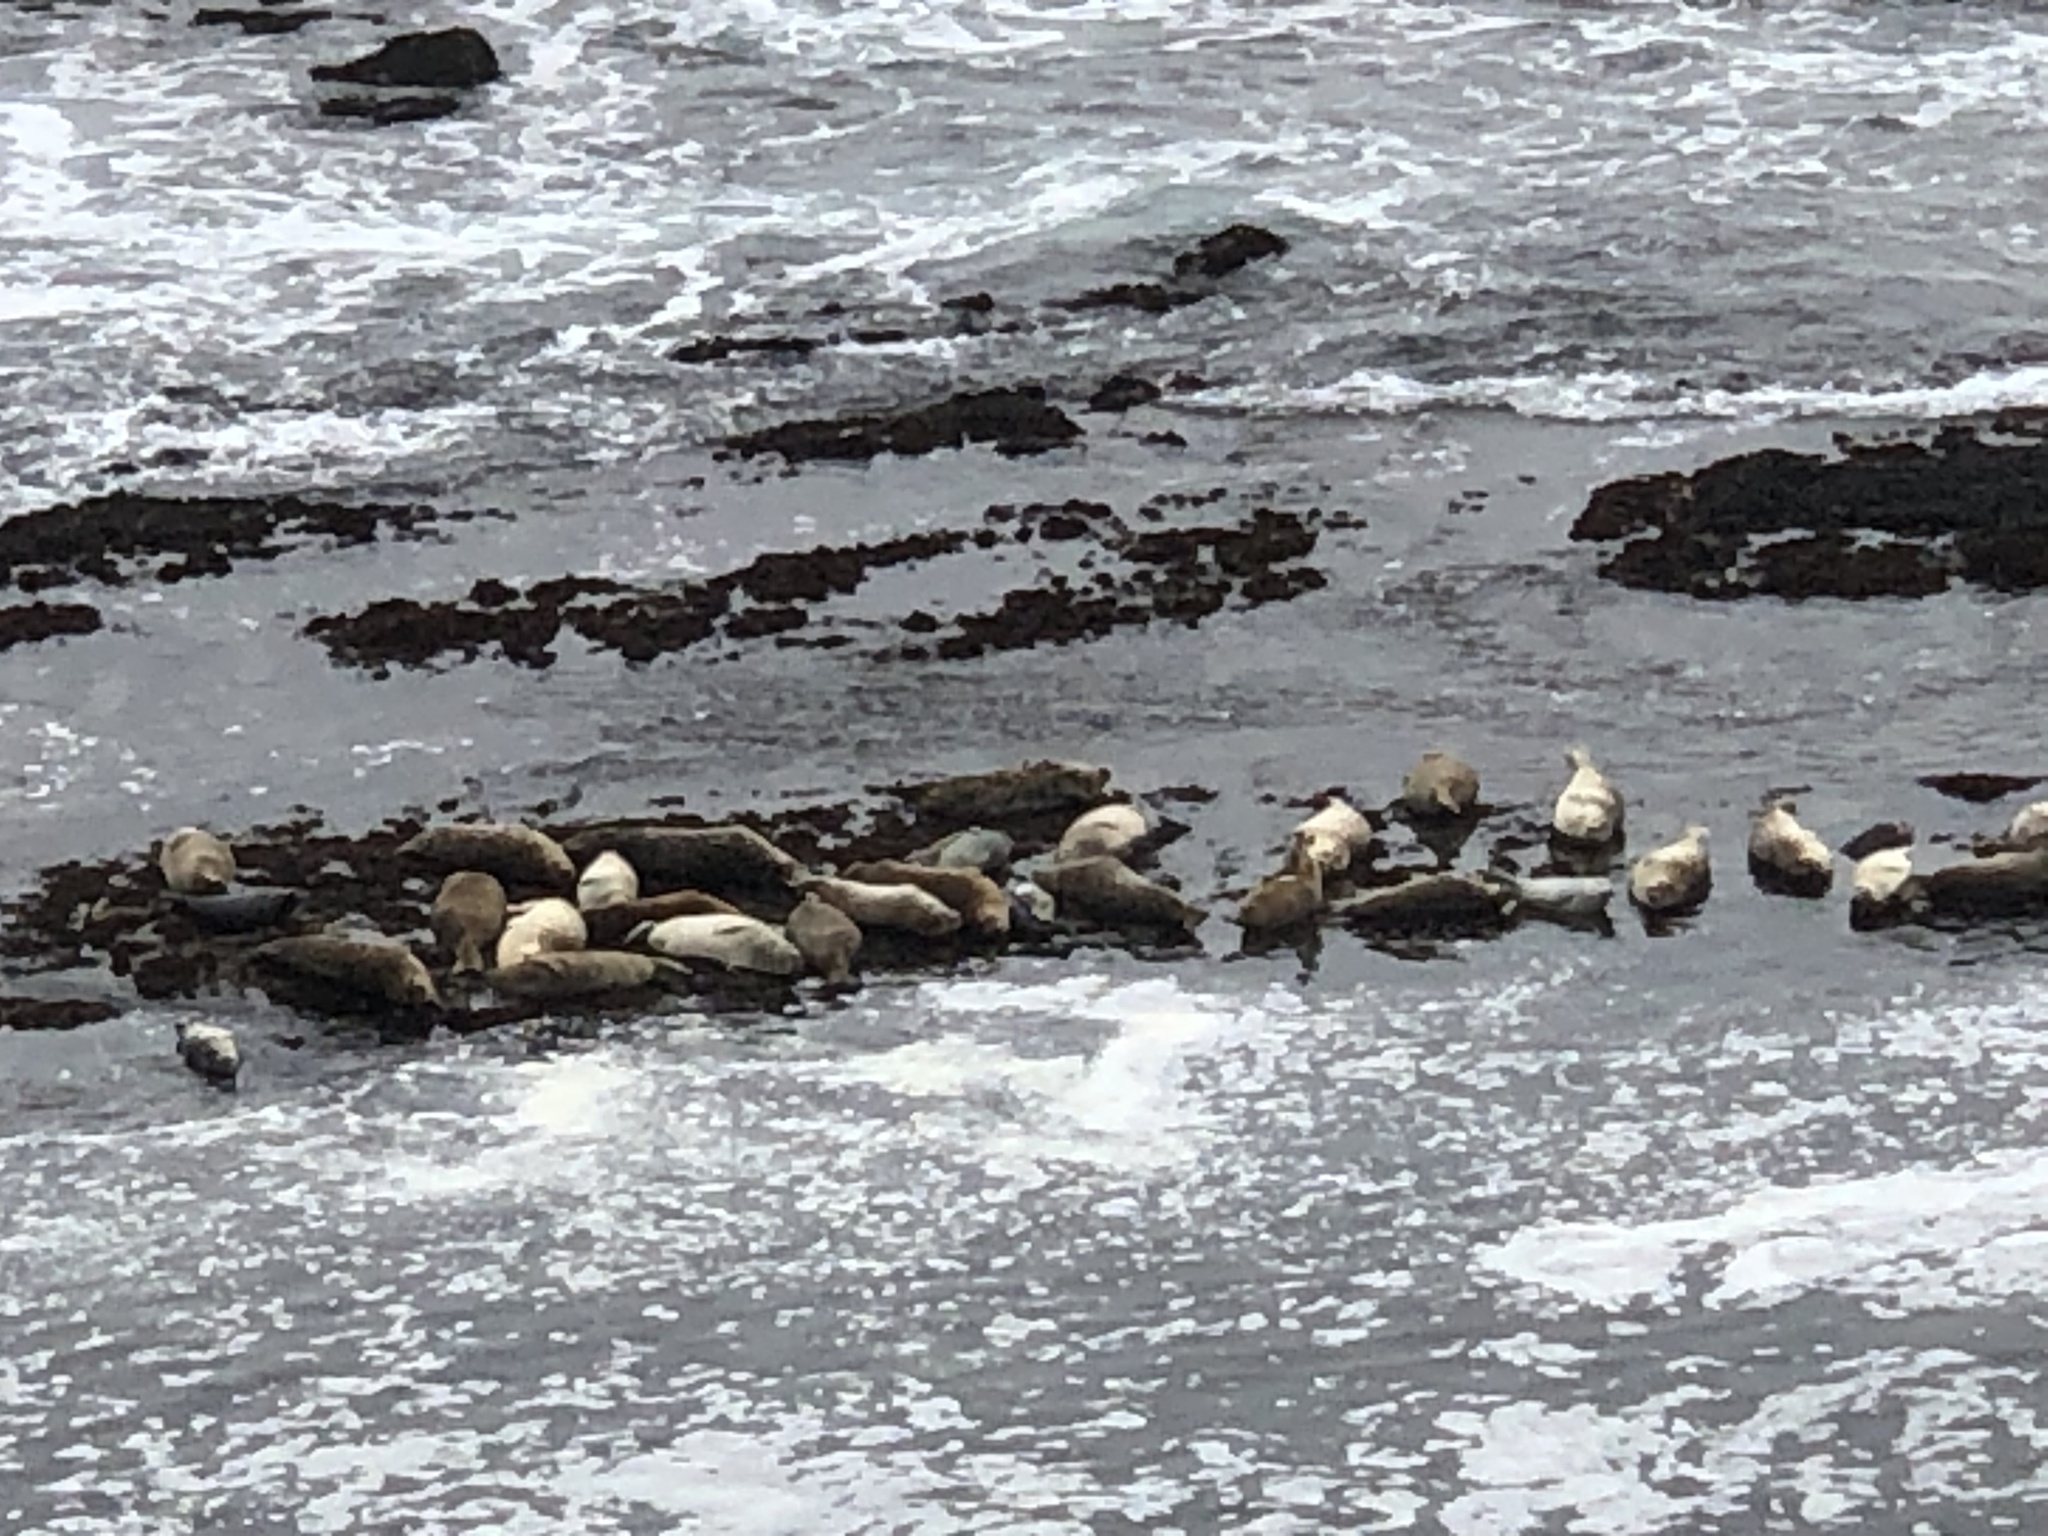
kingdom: Animalia
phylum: Chordata
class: Mammalia
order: Carnivora
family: Phocidae
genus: Phoca
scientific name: Phoca vitulina
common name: Harbor seal
